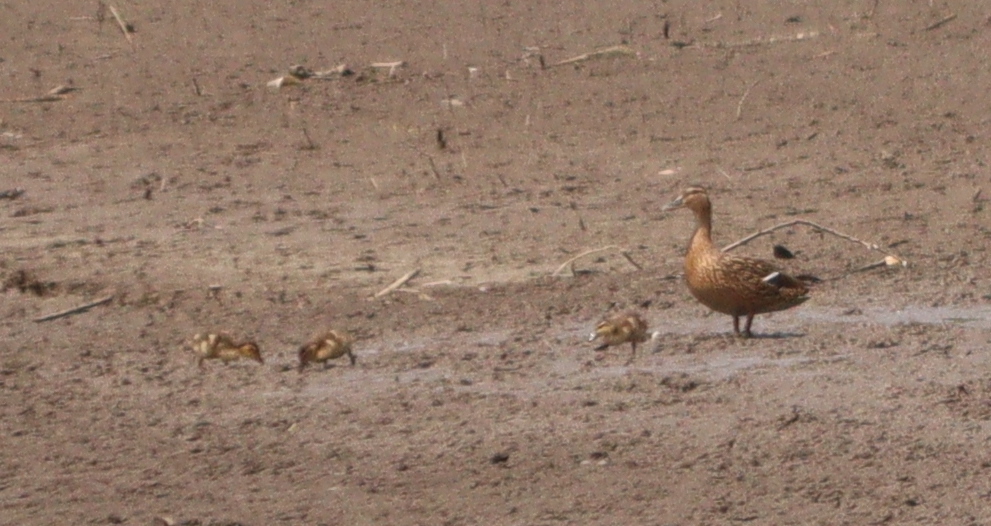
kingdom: Animalia
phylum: Chordata
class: Aves
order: Anseriformes
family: Anatidae
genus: Anas
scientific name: Anas platyrhynchos
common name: Mallard
